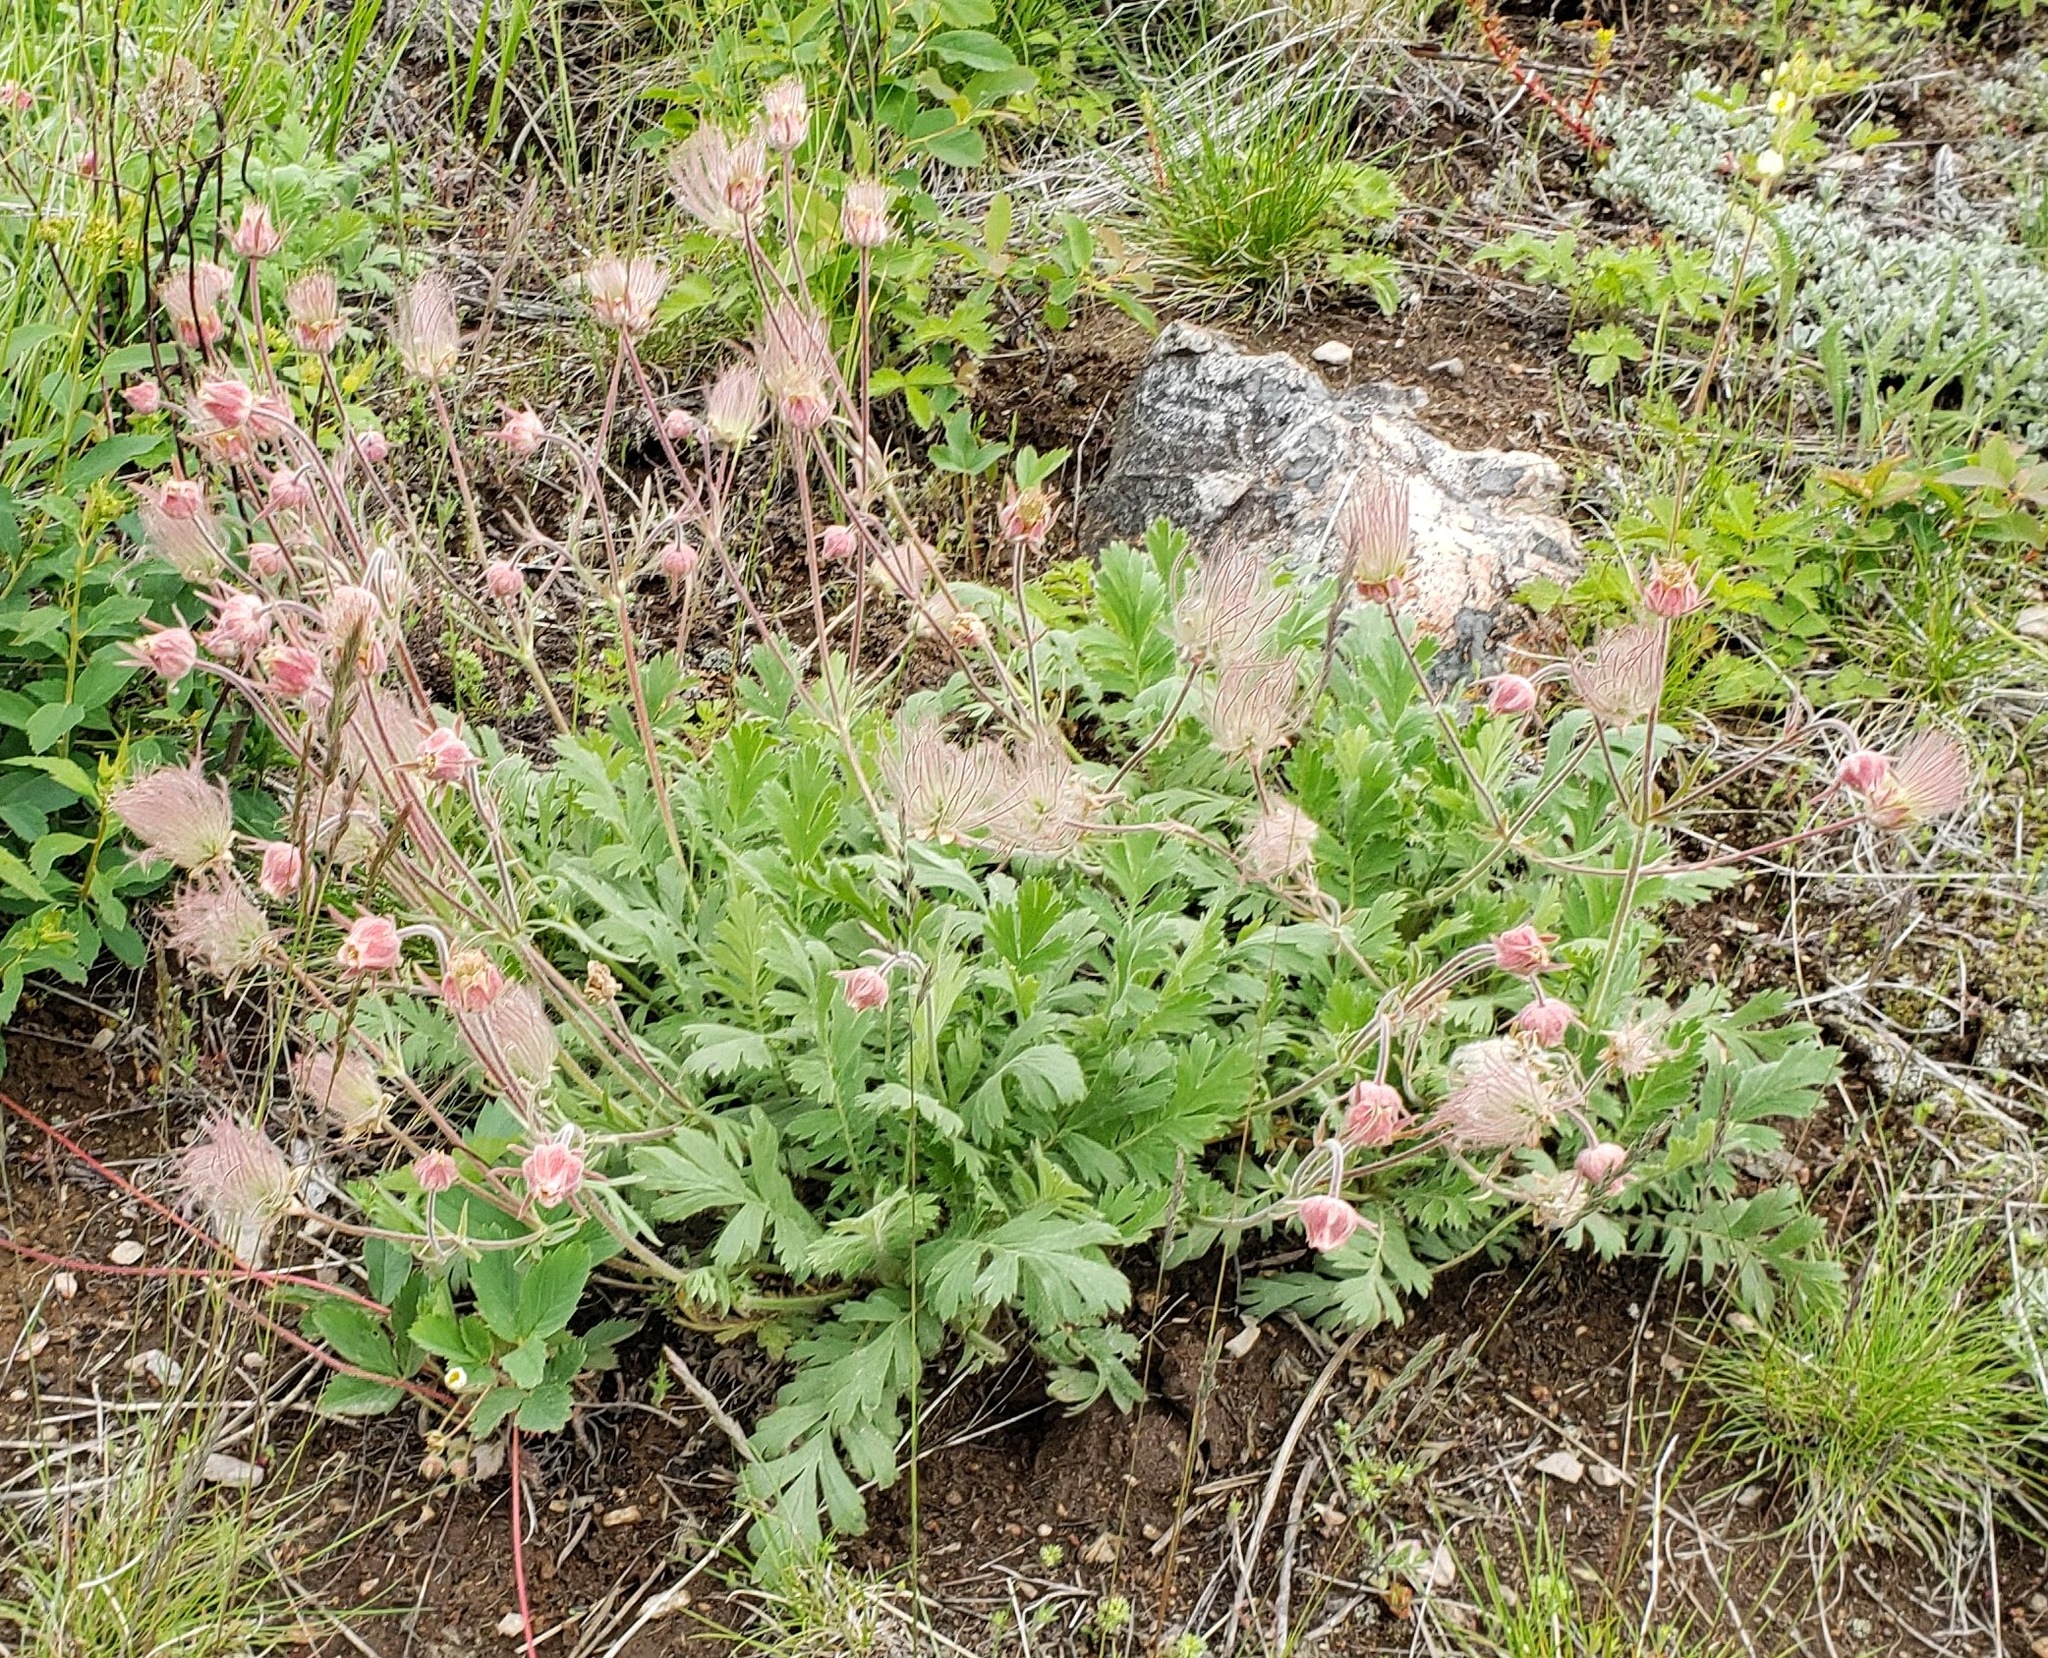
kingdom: Plantae
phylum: Tracheophyta
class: Magnoliopsida
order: Rosales
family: Rosaceae
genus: Geum
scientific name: Geum triflorum
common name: Old man's whiskers
